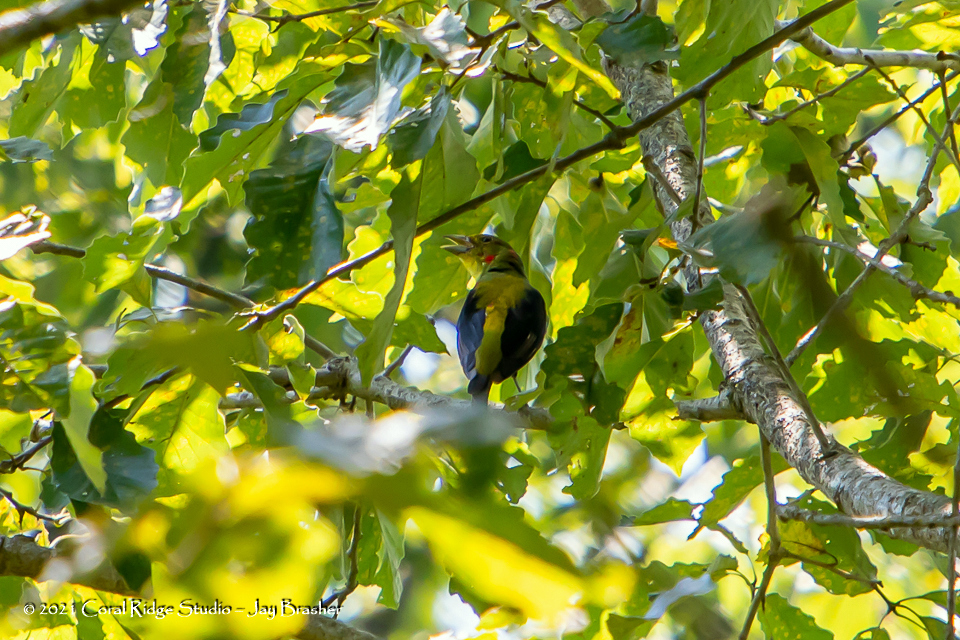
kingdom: Animalia
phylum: Chordata
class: Aves
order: Passeriformes
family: Cardinalidae
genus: Piranga
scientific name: Piranga olivacea
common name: Scarlet tanager
